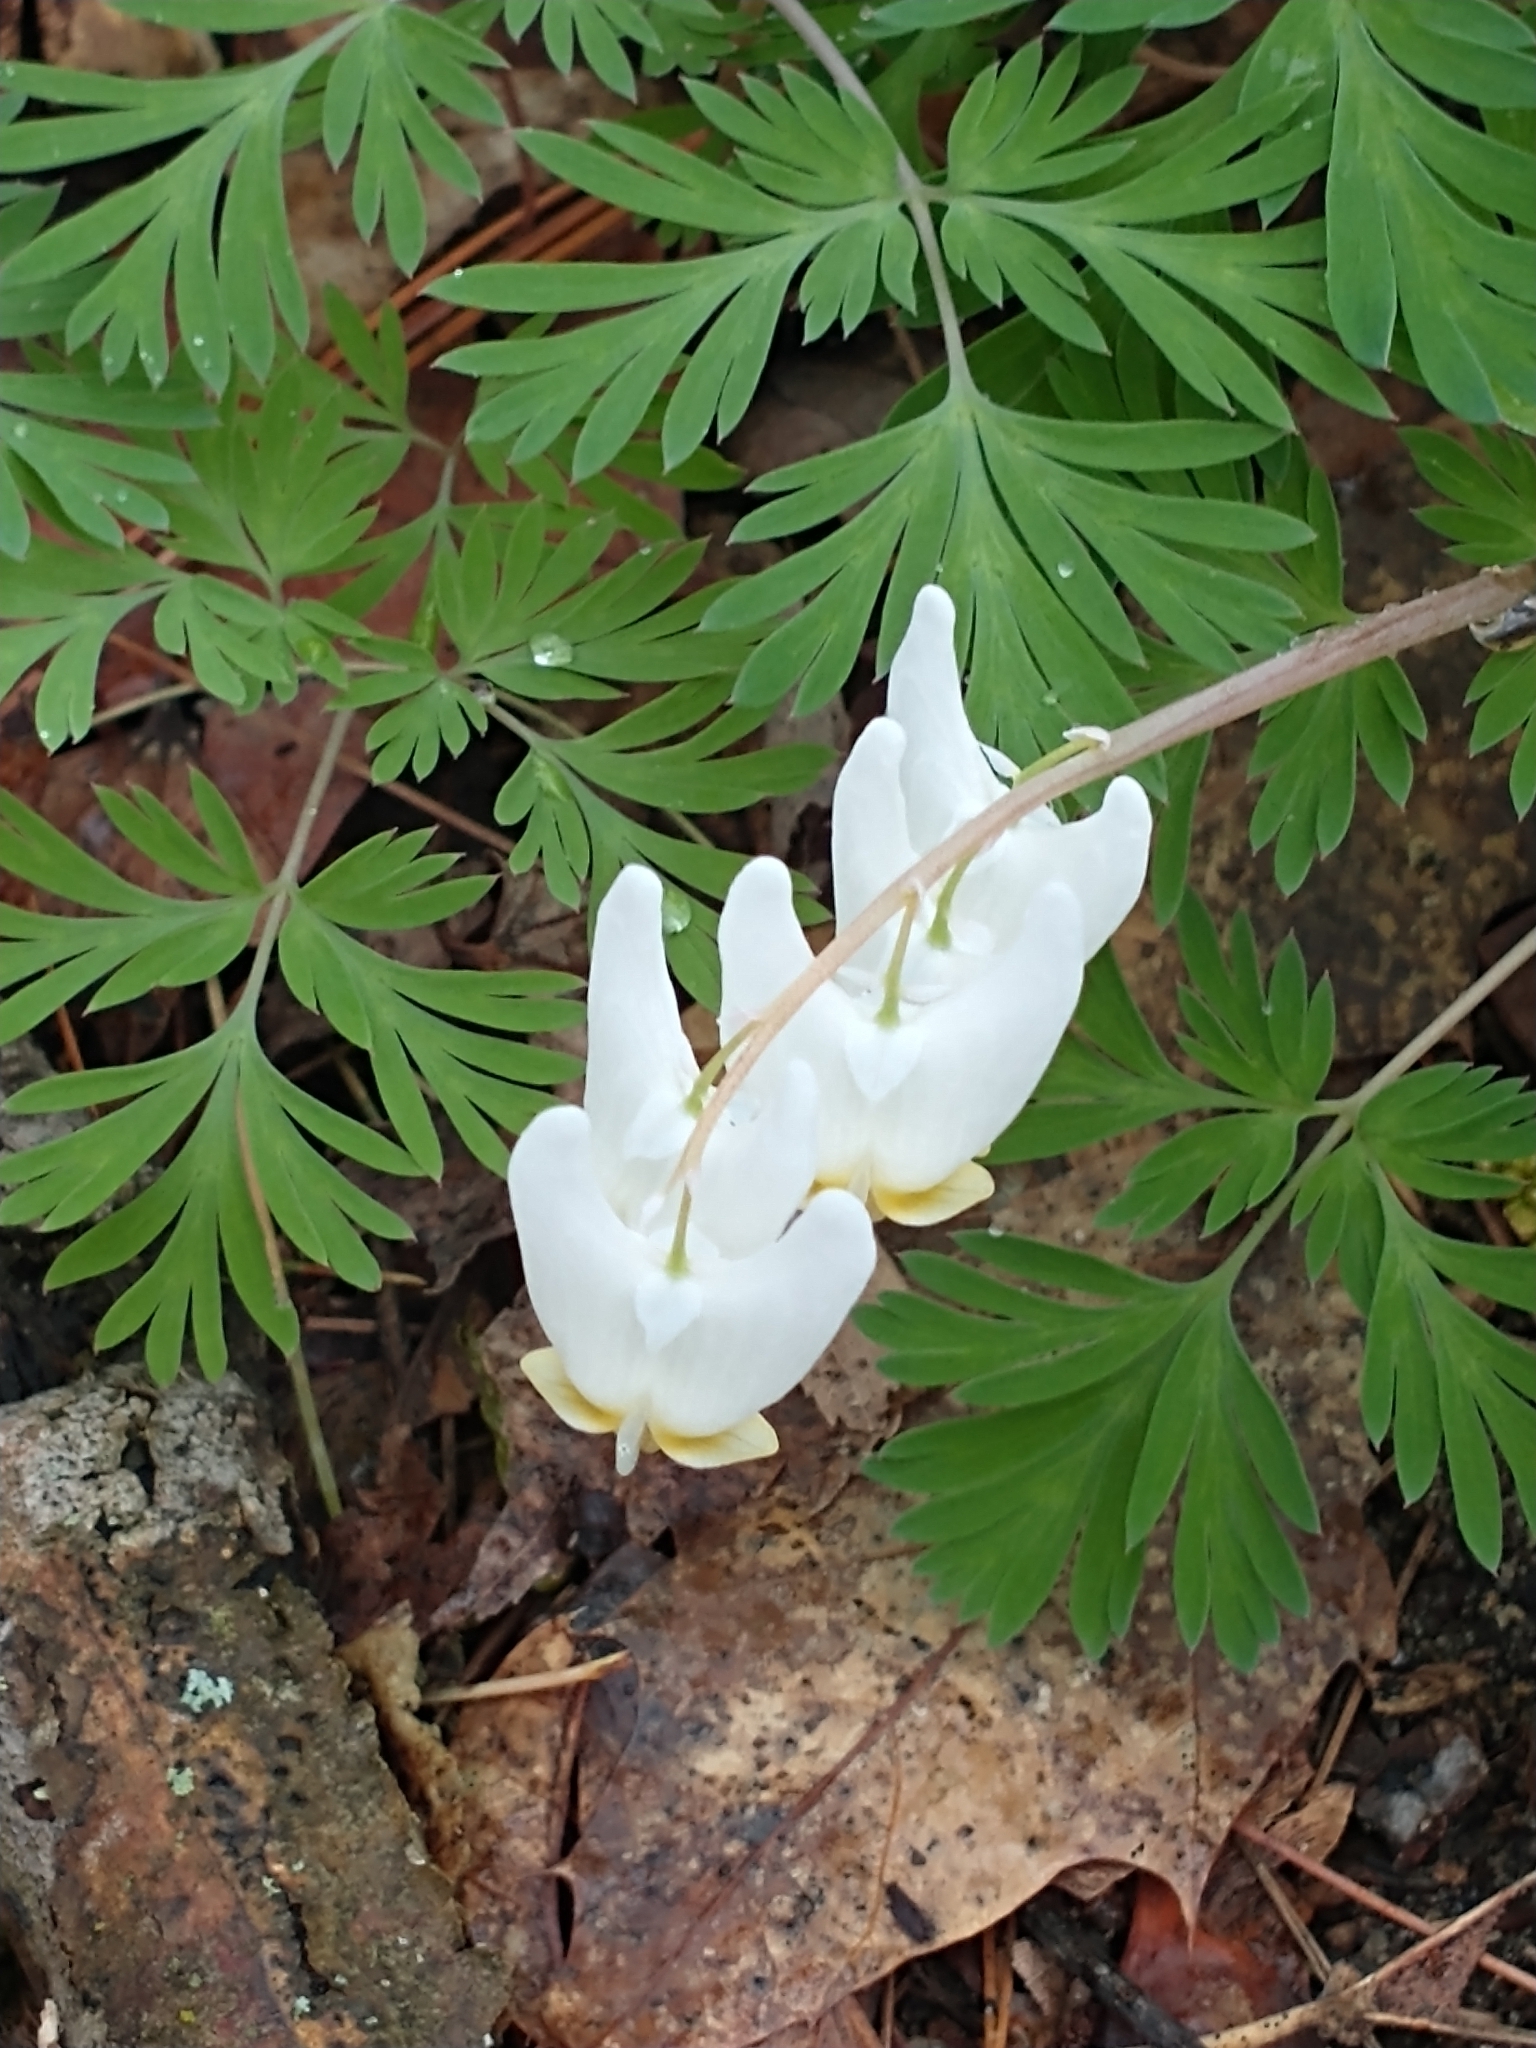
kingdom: Plantae
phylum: Tracheophyta
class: Magnoliopsida
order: Ranunculales
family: Papaveraceae
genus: Dicentra
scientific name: Dicentra cucullaria
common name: Dutchman's breeches
